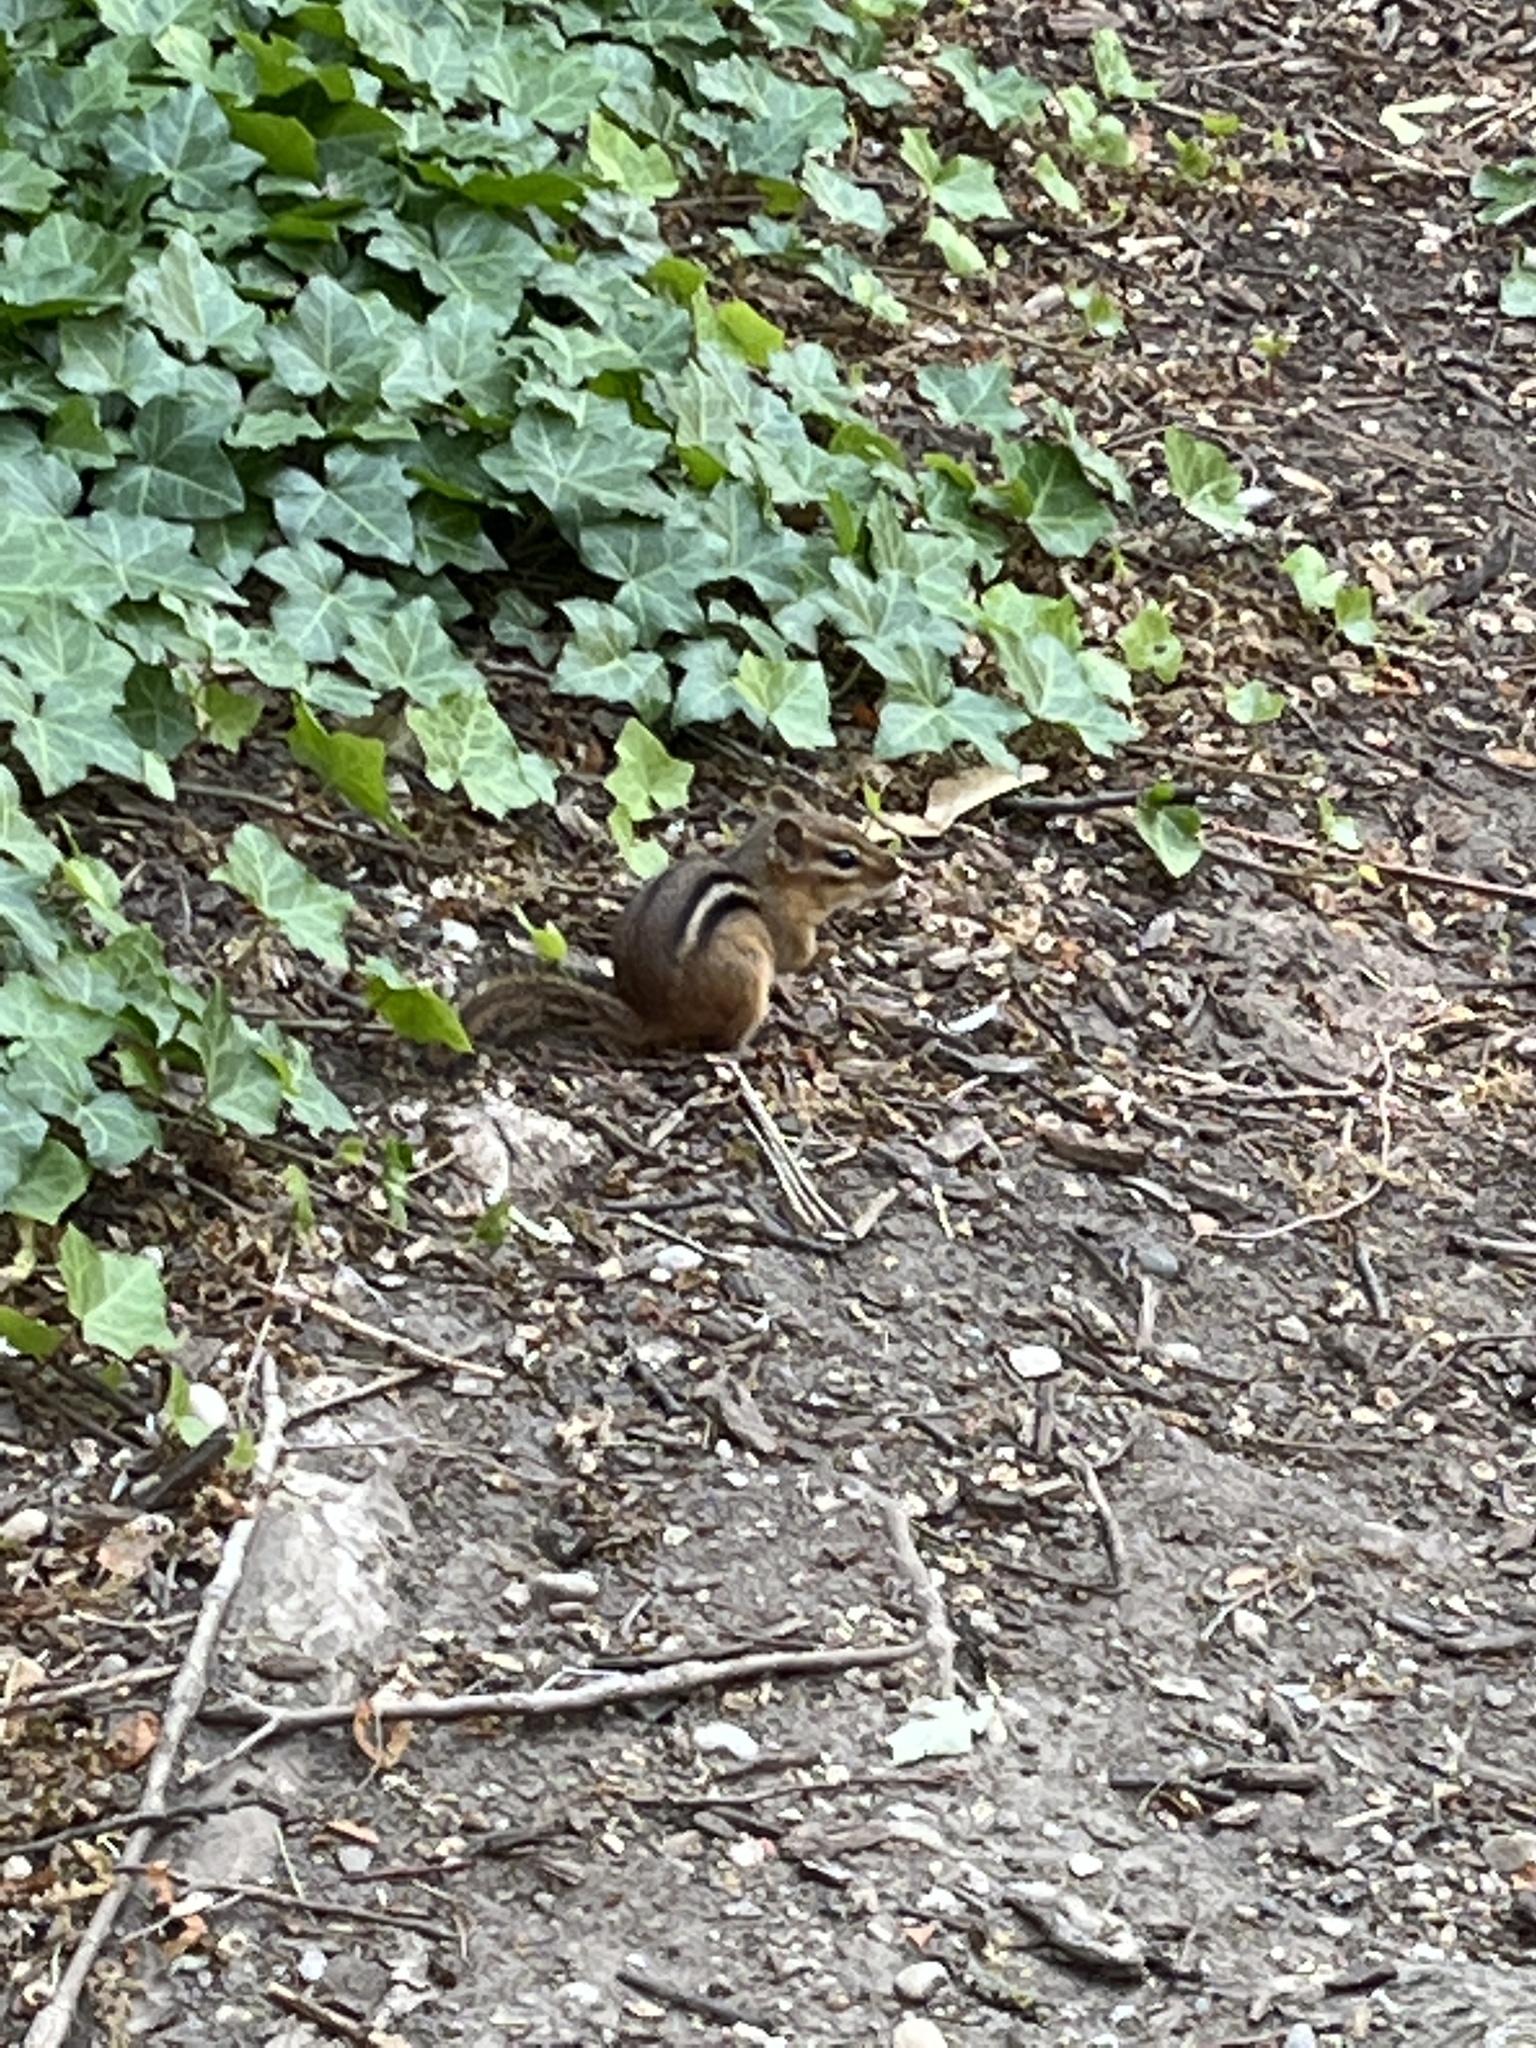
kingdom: Animalia
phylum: Chordata
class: Mammalia
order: Rodentia
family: Sciuridae
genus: Tamias
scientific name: Tamias striatus
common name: Eastern chipmunk
